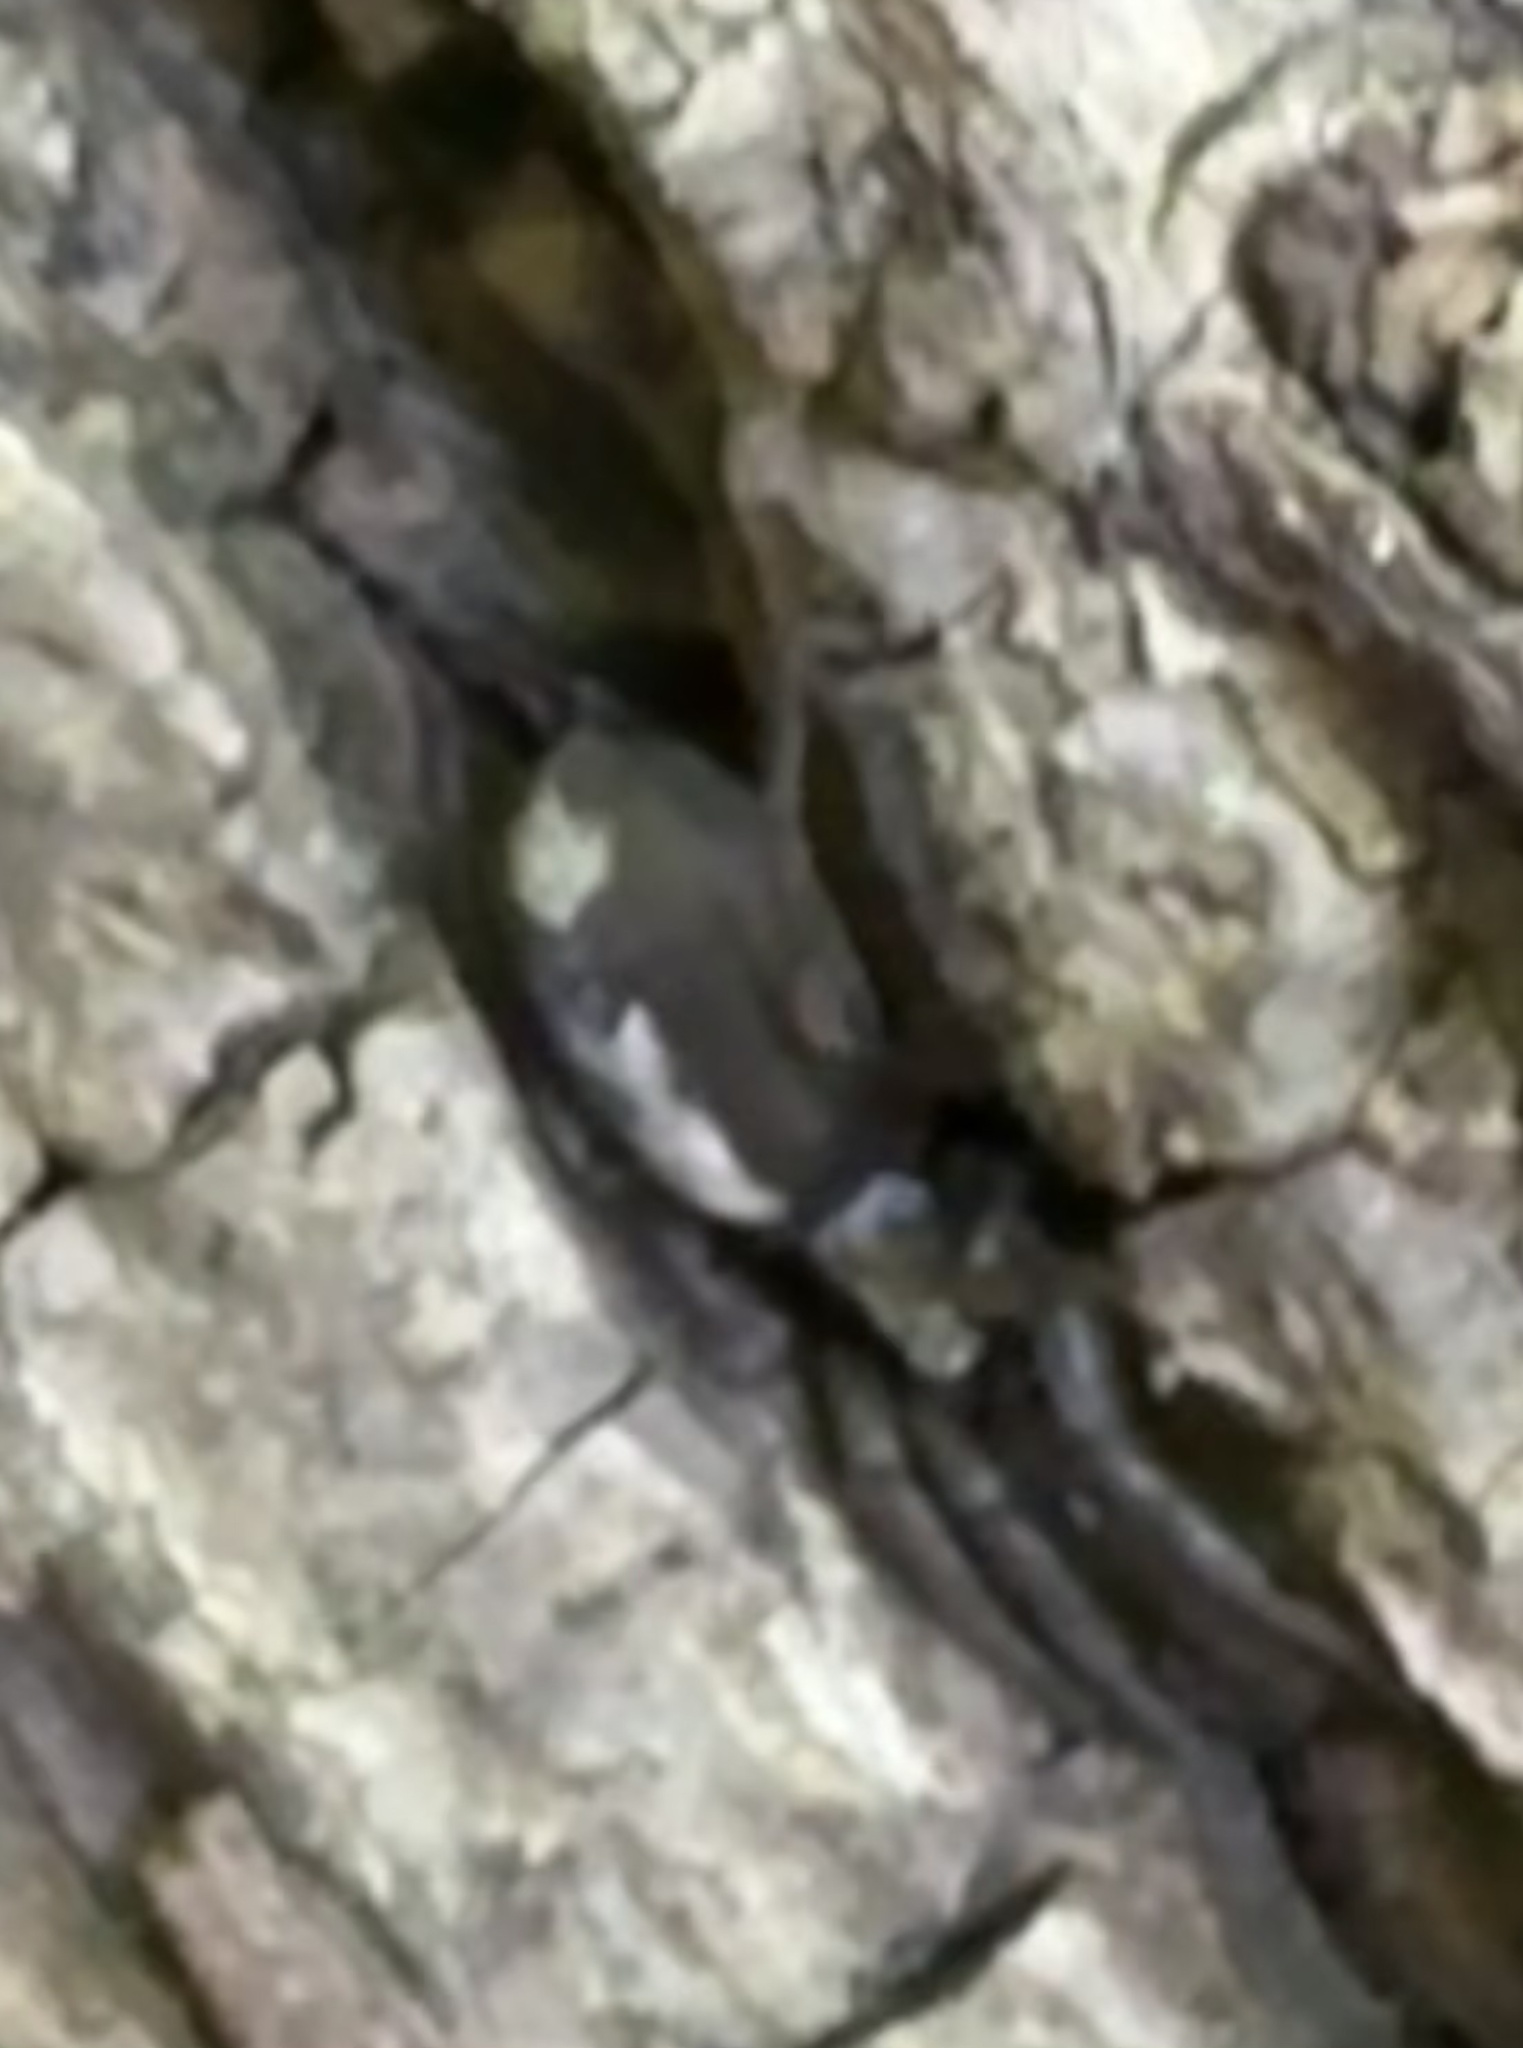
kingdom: Animalia
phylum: Arthropoda
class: Arachnida
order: Araneae
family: Gnaphosidae
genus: Herpyllus
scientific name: Herpyllus ecclesiasticus
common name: Eastern parson spider
